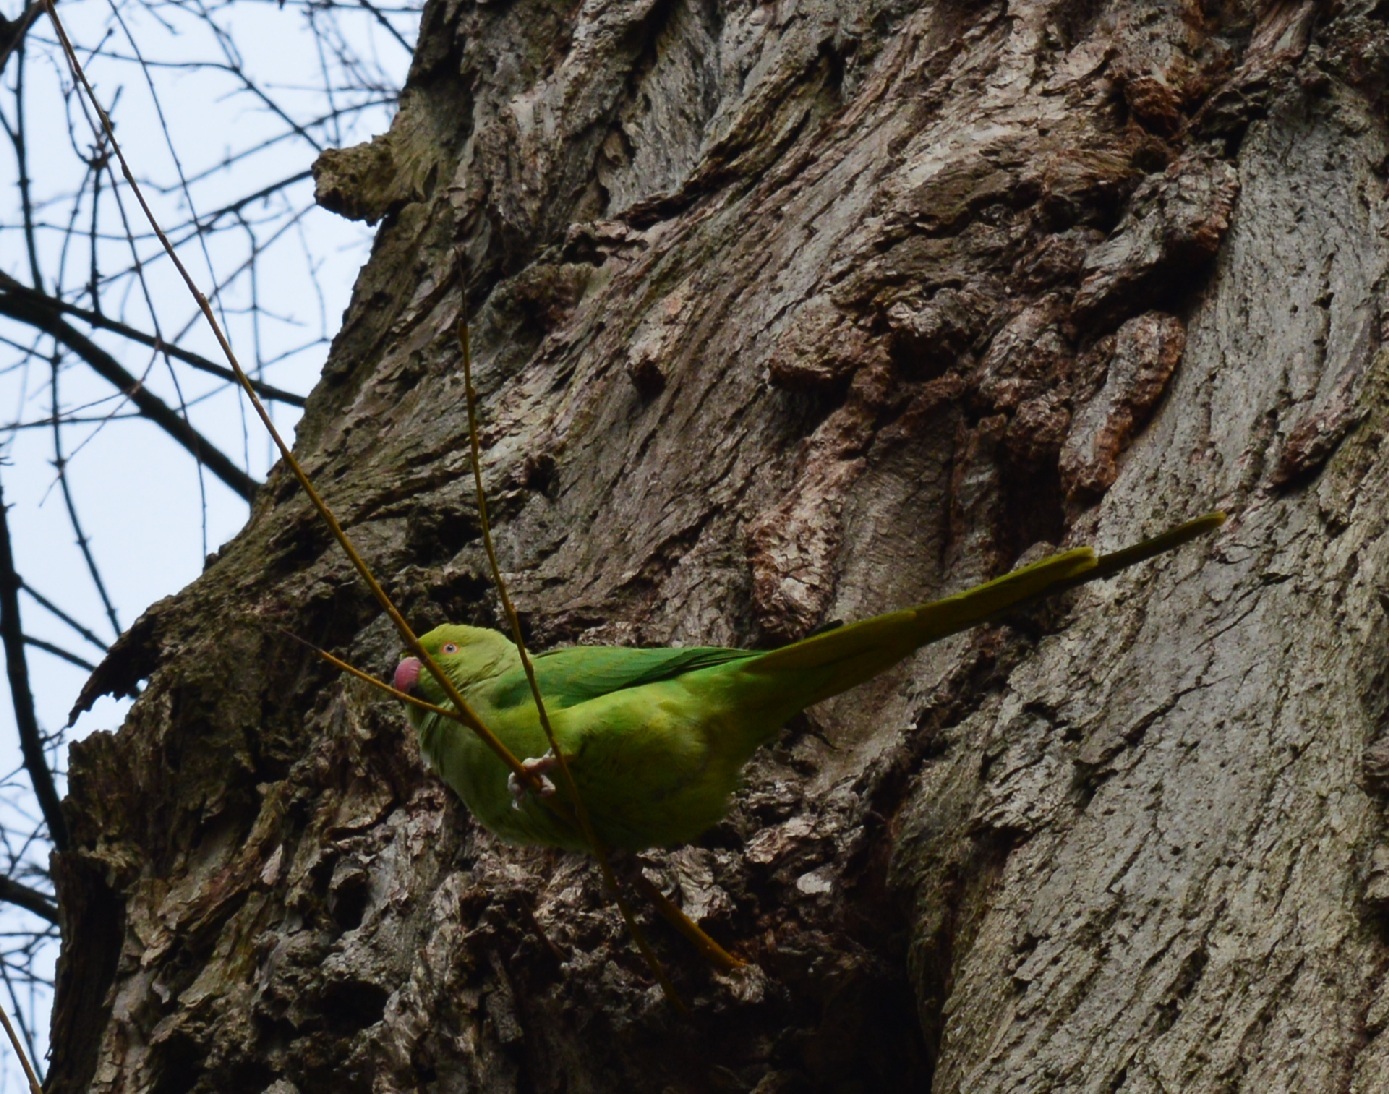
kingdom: Animalia
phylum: Chordata
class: Aves
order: Psittaciformes
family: Psittacidae
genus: Psittacula
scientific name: Psittacula krameri
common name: Rose-ringed parakeet
